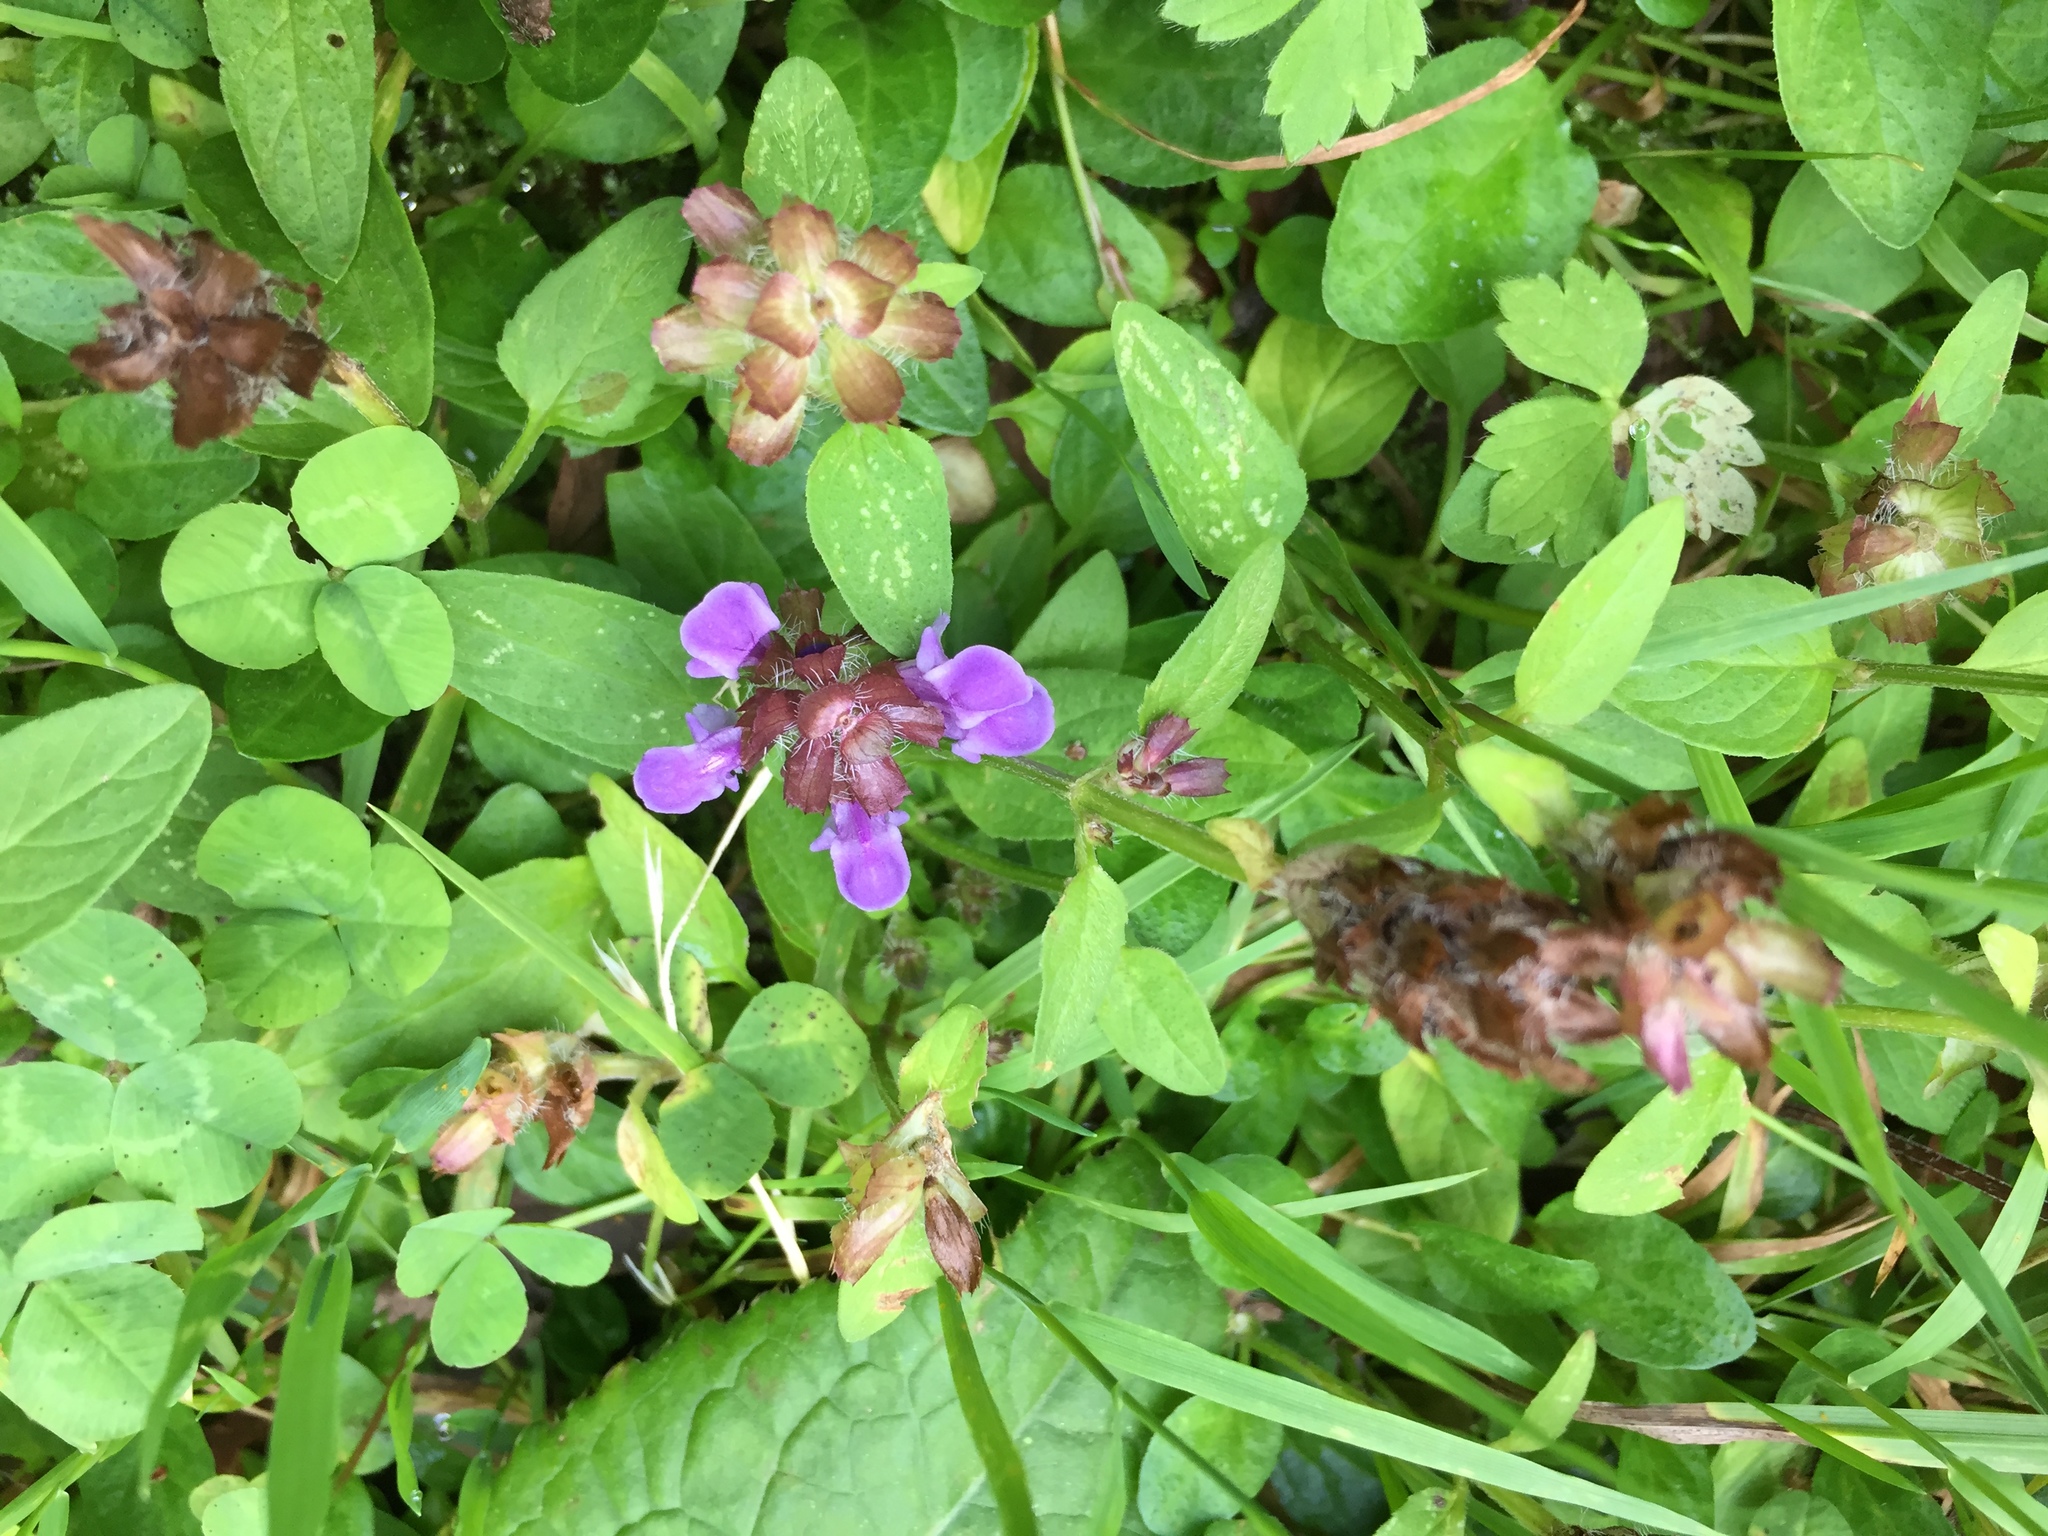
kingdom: Plantae
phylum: Tracheophyta
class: Magnoliopsida
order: Lamiales
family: Lamiaceae
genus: Prunella
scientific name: Prunella vulgaris
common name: Heal-all
